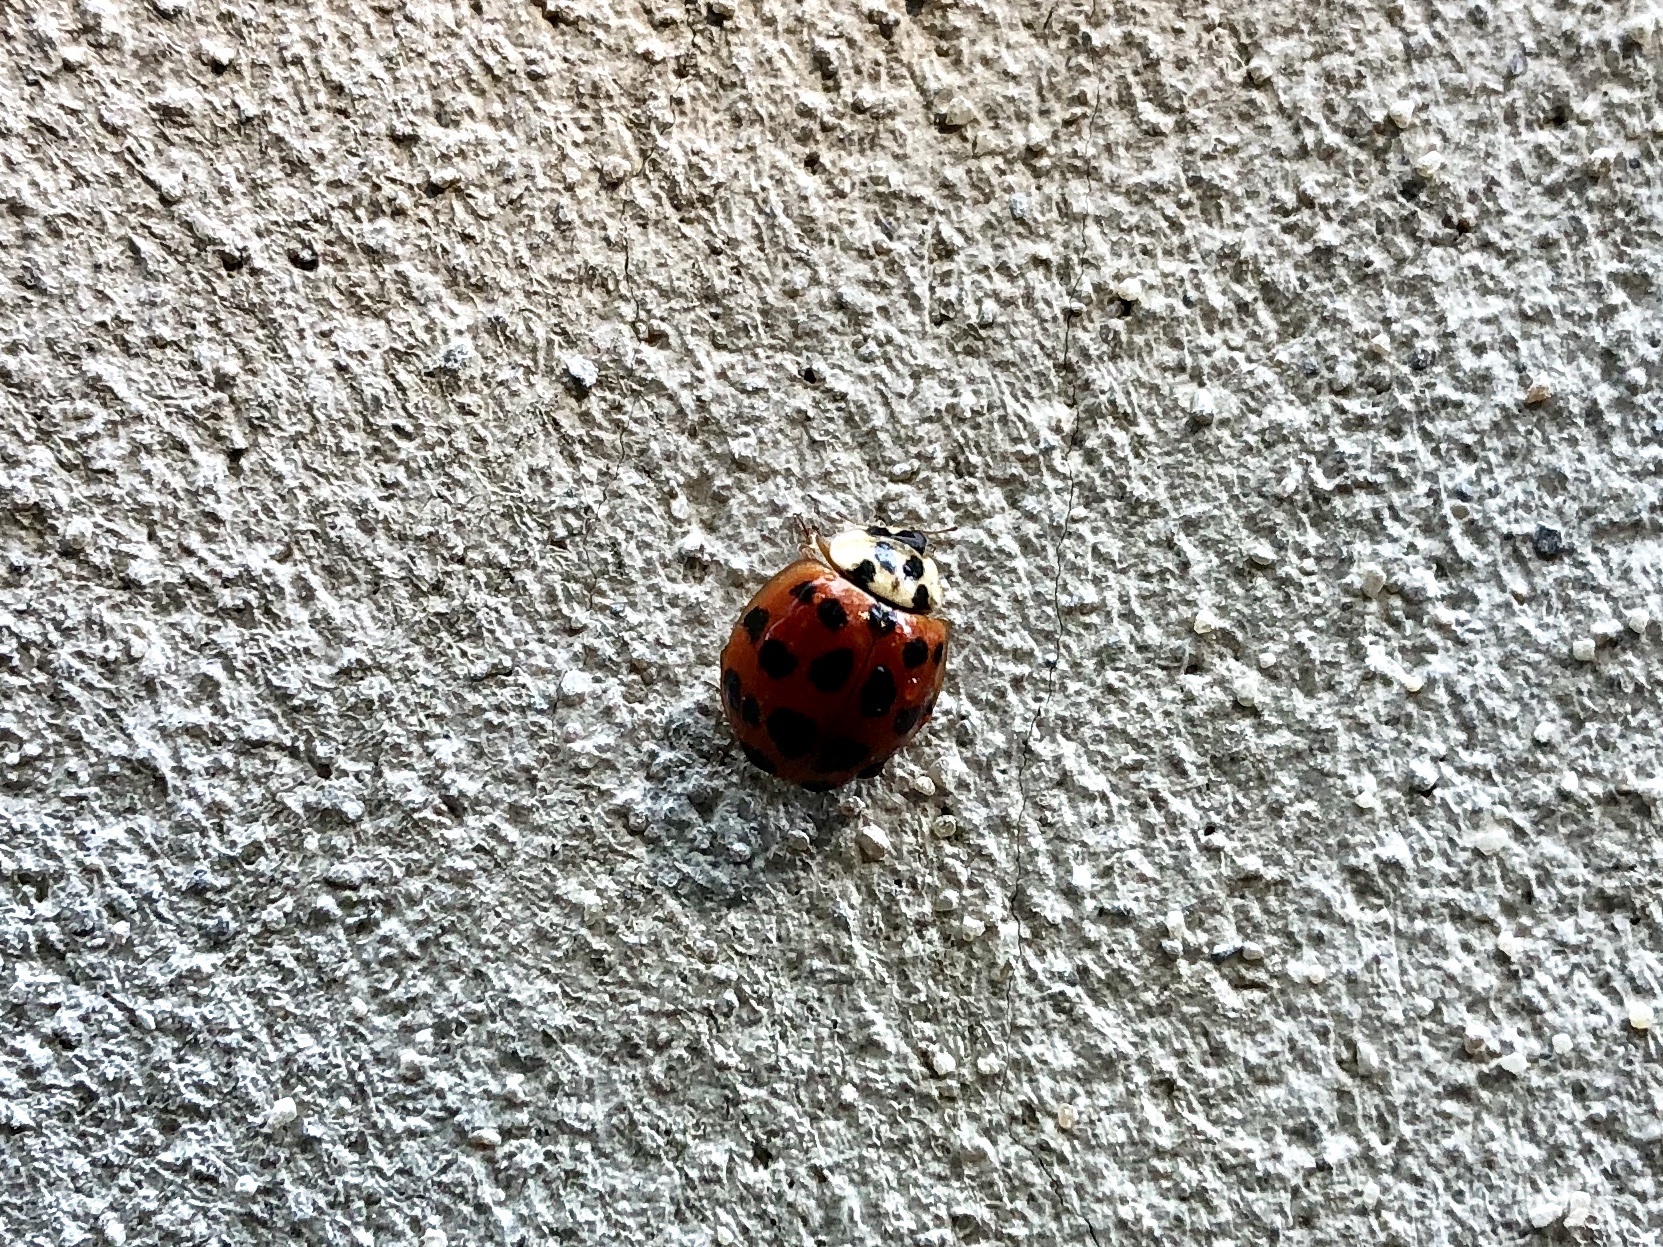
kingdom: Animalia
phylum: Arthropoda
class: Insecta
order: Coleoptera
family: Coccinellidae
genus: Harmonia
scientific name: Harmonia axyridis
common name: Harlequin ladybird
